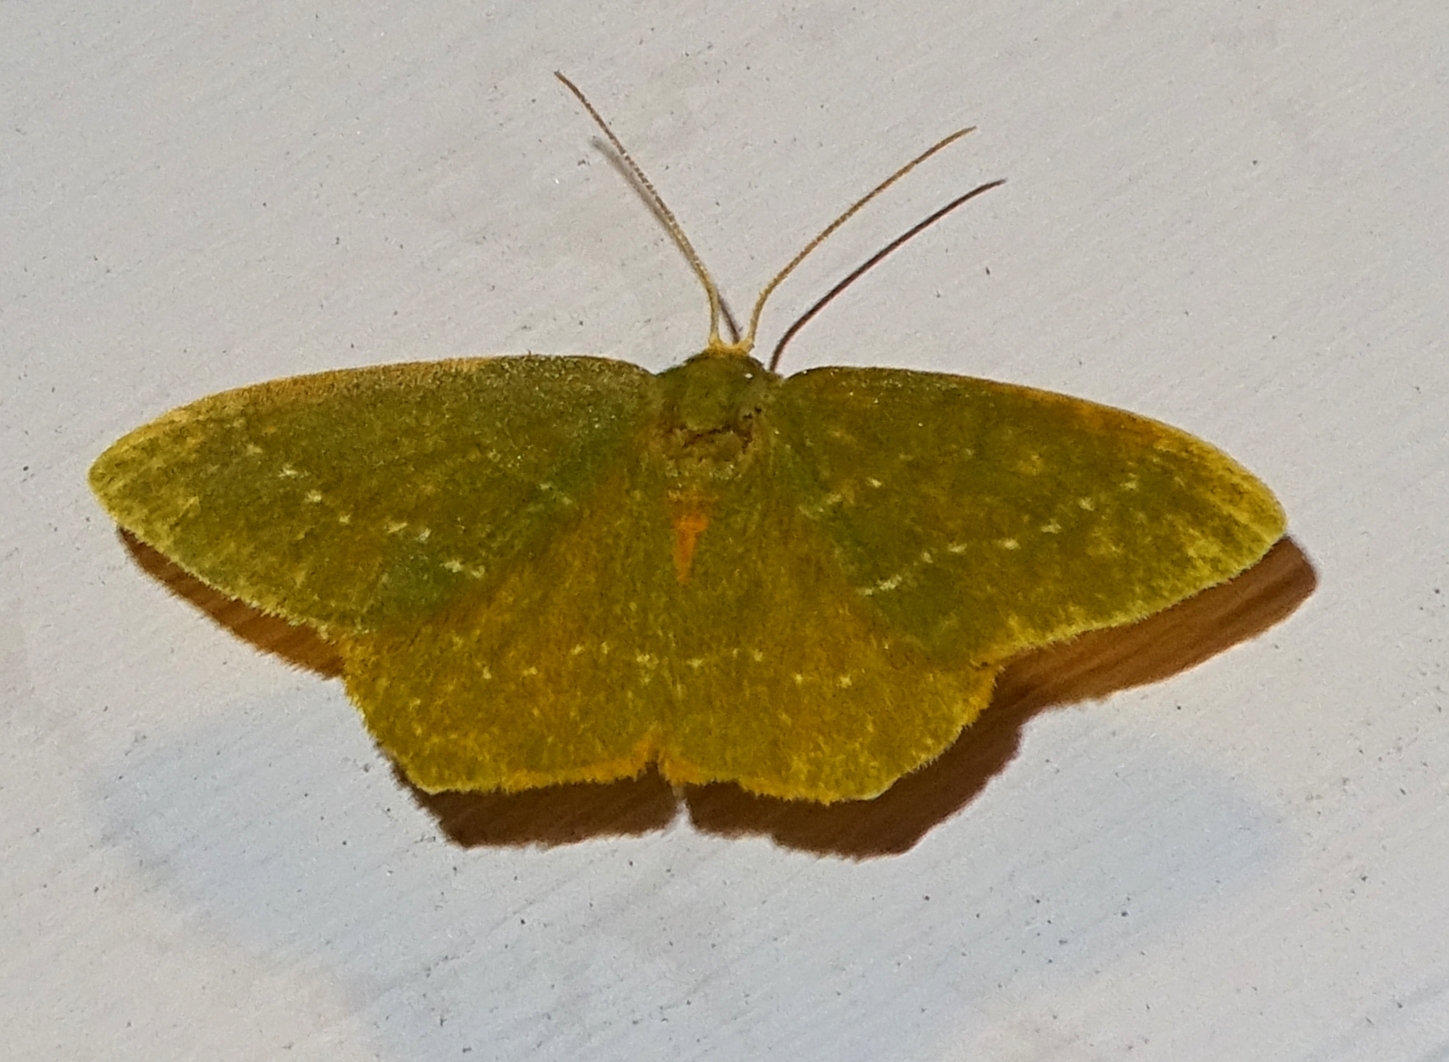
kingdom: Animalia
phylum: Arthropoda
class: Insecta
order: Lepidoptera
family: Geometridae
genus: Thalera
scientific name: Thalera pistasciaria
